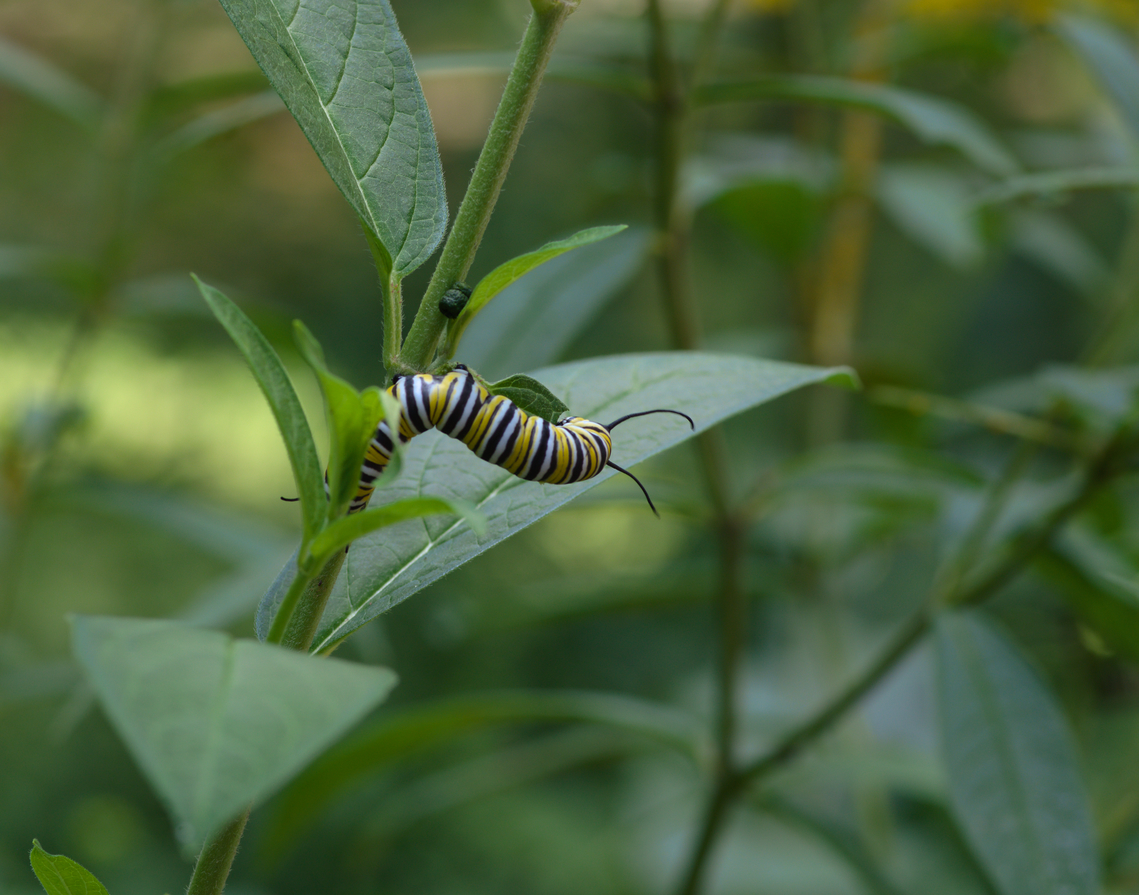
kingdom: Animalia
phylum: Arthropoda
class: Insecta
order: Lepidoptera
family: Nymphalidae
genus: Danaus
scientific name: Danaus plexippus
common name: Monarch
